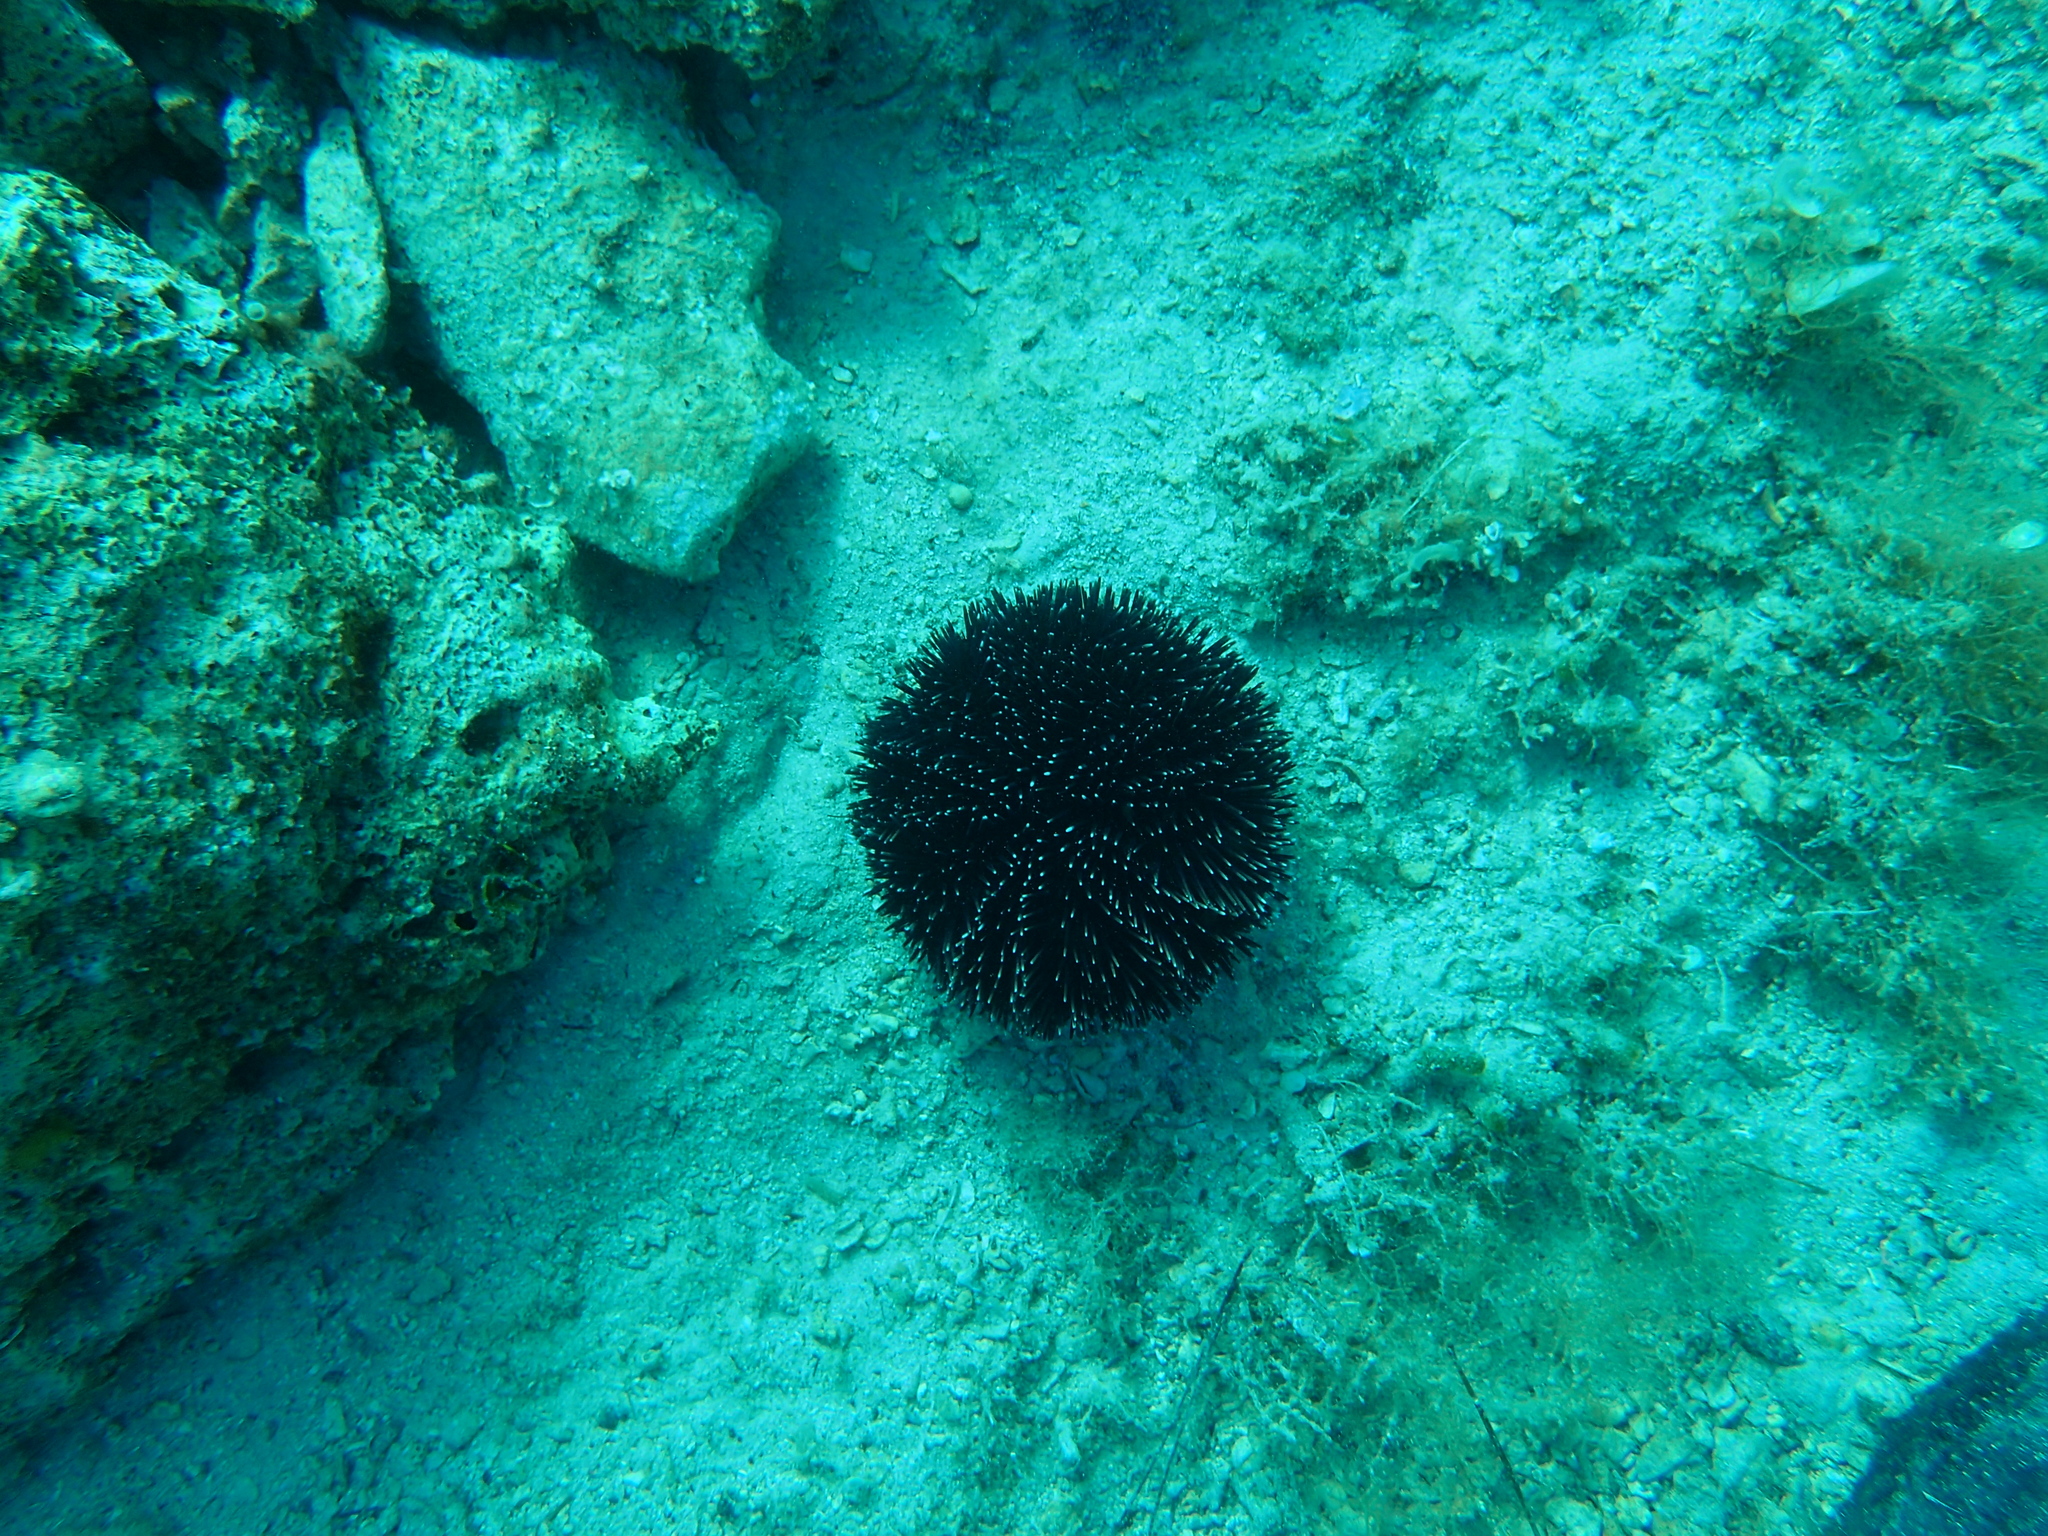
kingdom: Animalia
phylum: Echinodermata
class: Echinoidea
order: Camarodonta
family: Toxopneustidae
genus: Sphaerechinus
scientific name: Sphaerechinus granularis
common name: Violet sea urchin
